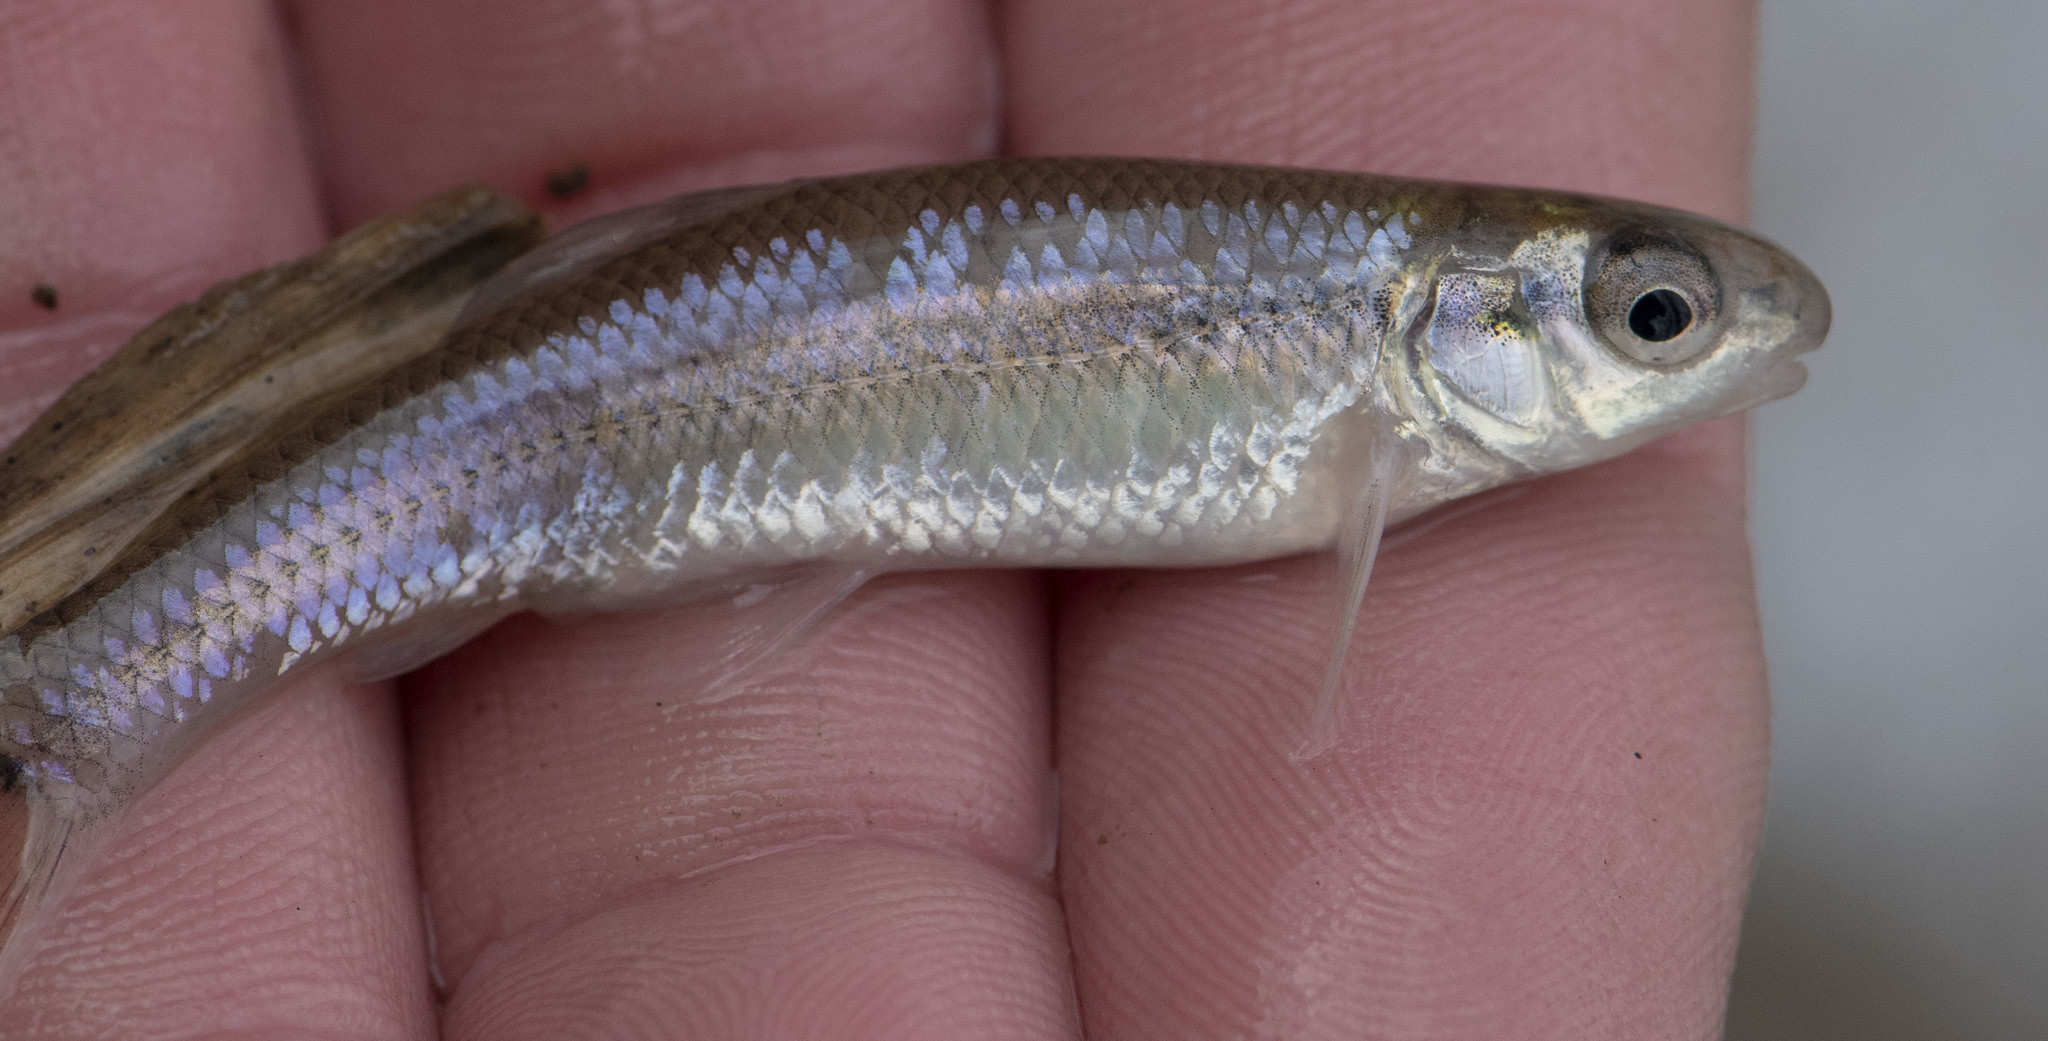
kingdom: Animalia
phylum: Chordata
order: Cypriniformes
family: Cyprinidae
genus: Pimephales
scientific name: Pimephales notatus
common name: Bluntnose minnow
